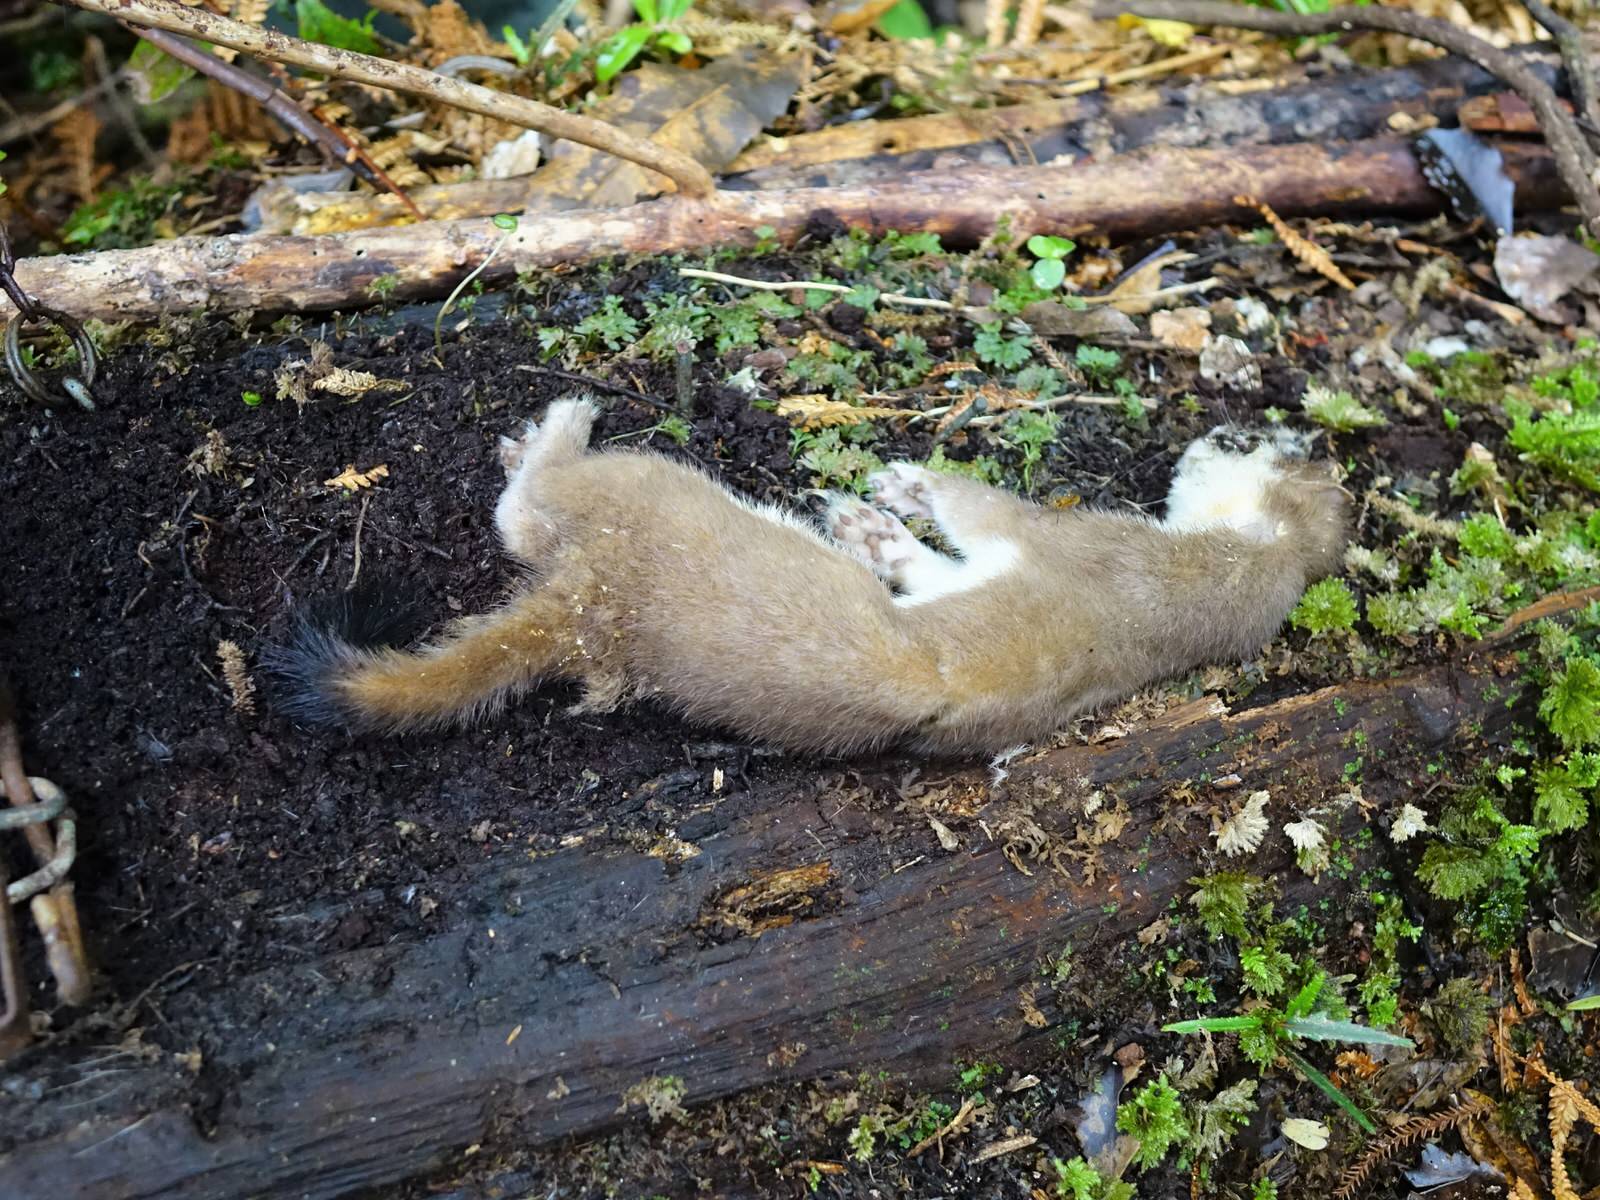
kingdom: Animalia
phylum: Chordata
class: Mammalia
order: Carnivora
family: Mustelidae
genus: Mustela
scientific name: Mustela erminea
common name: Stoat
